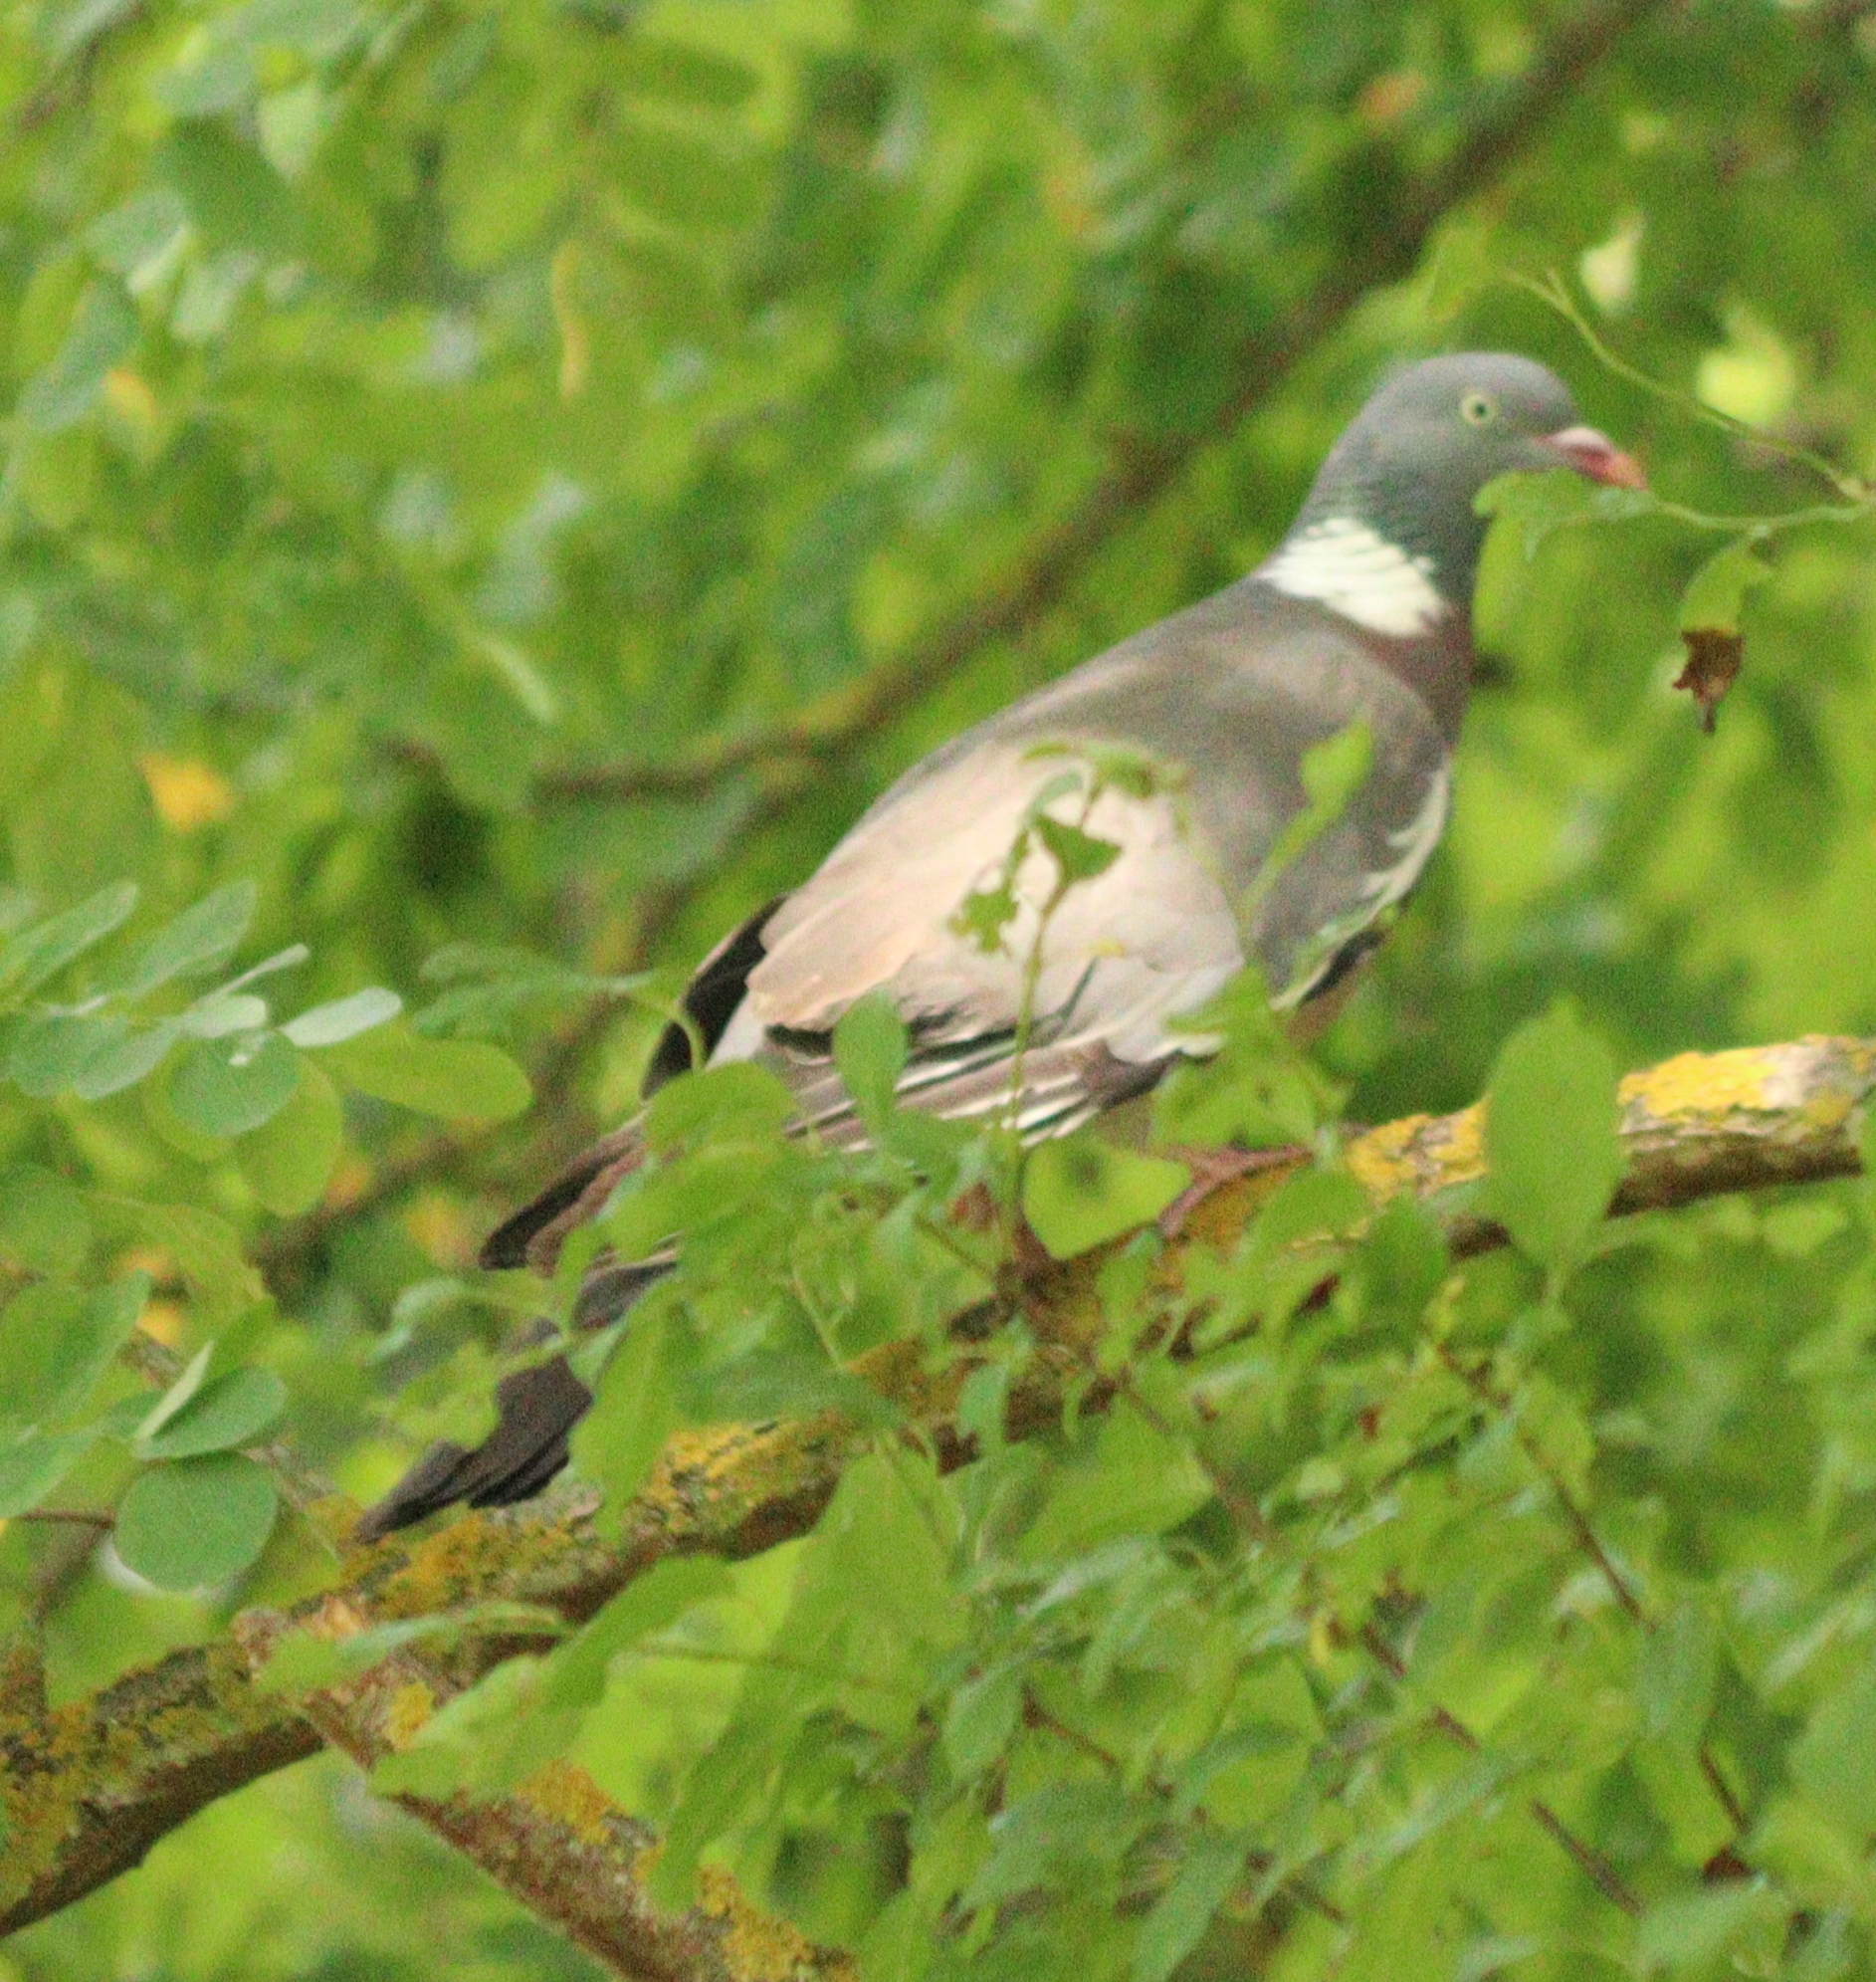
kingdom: Animalia
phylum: Chordata
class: Aves
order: Columbiformes
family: Columbidae
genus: Columba
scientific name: Columba palumbus
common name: Common wood pigeon
